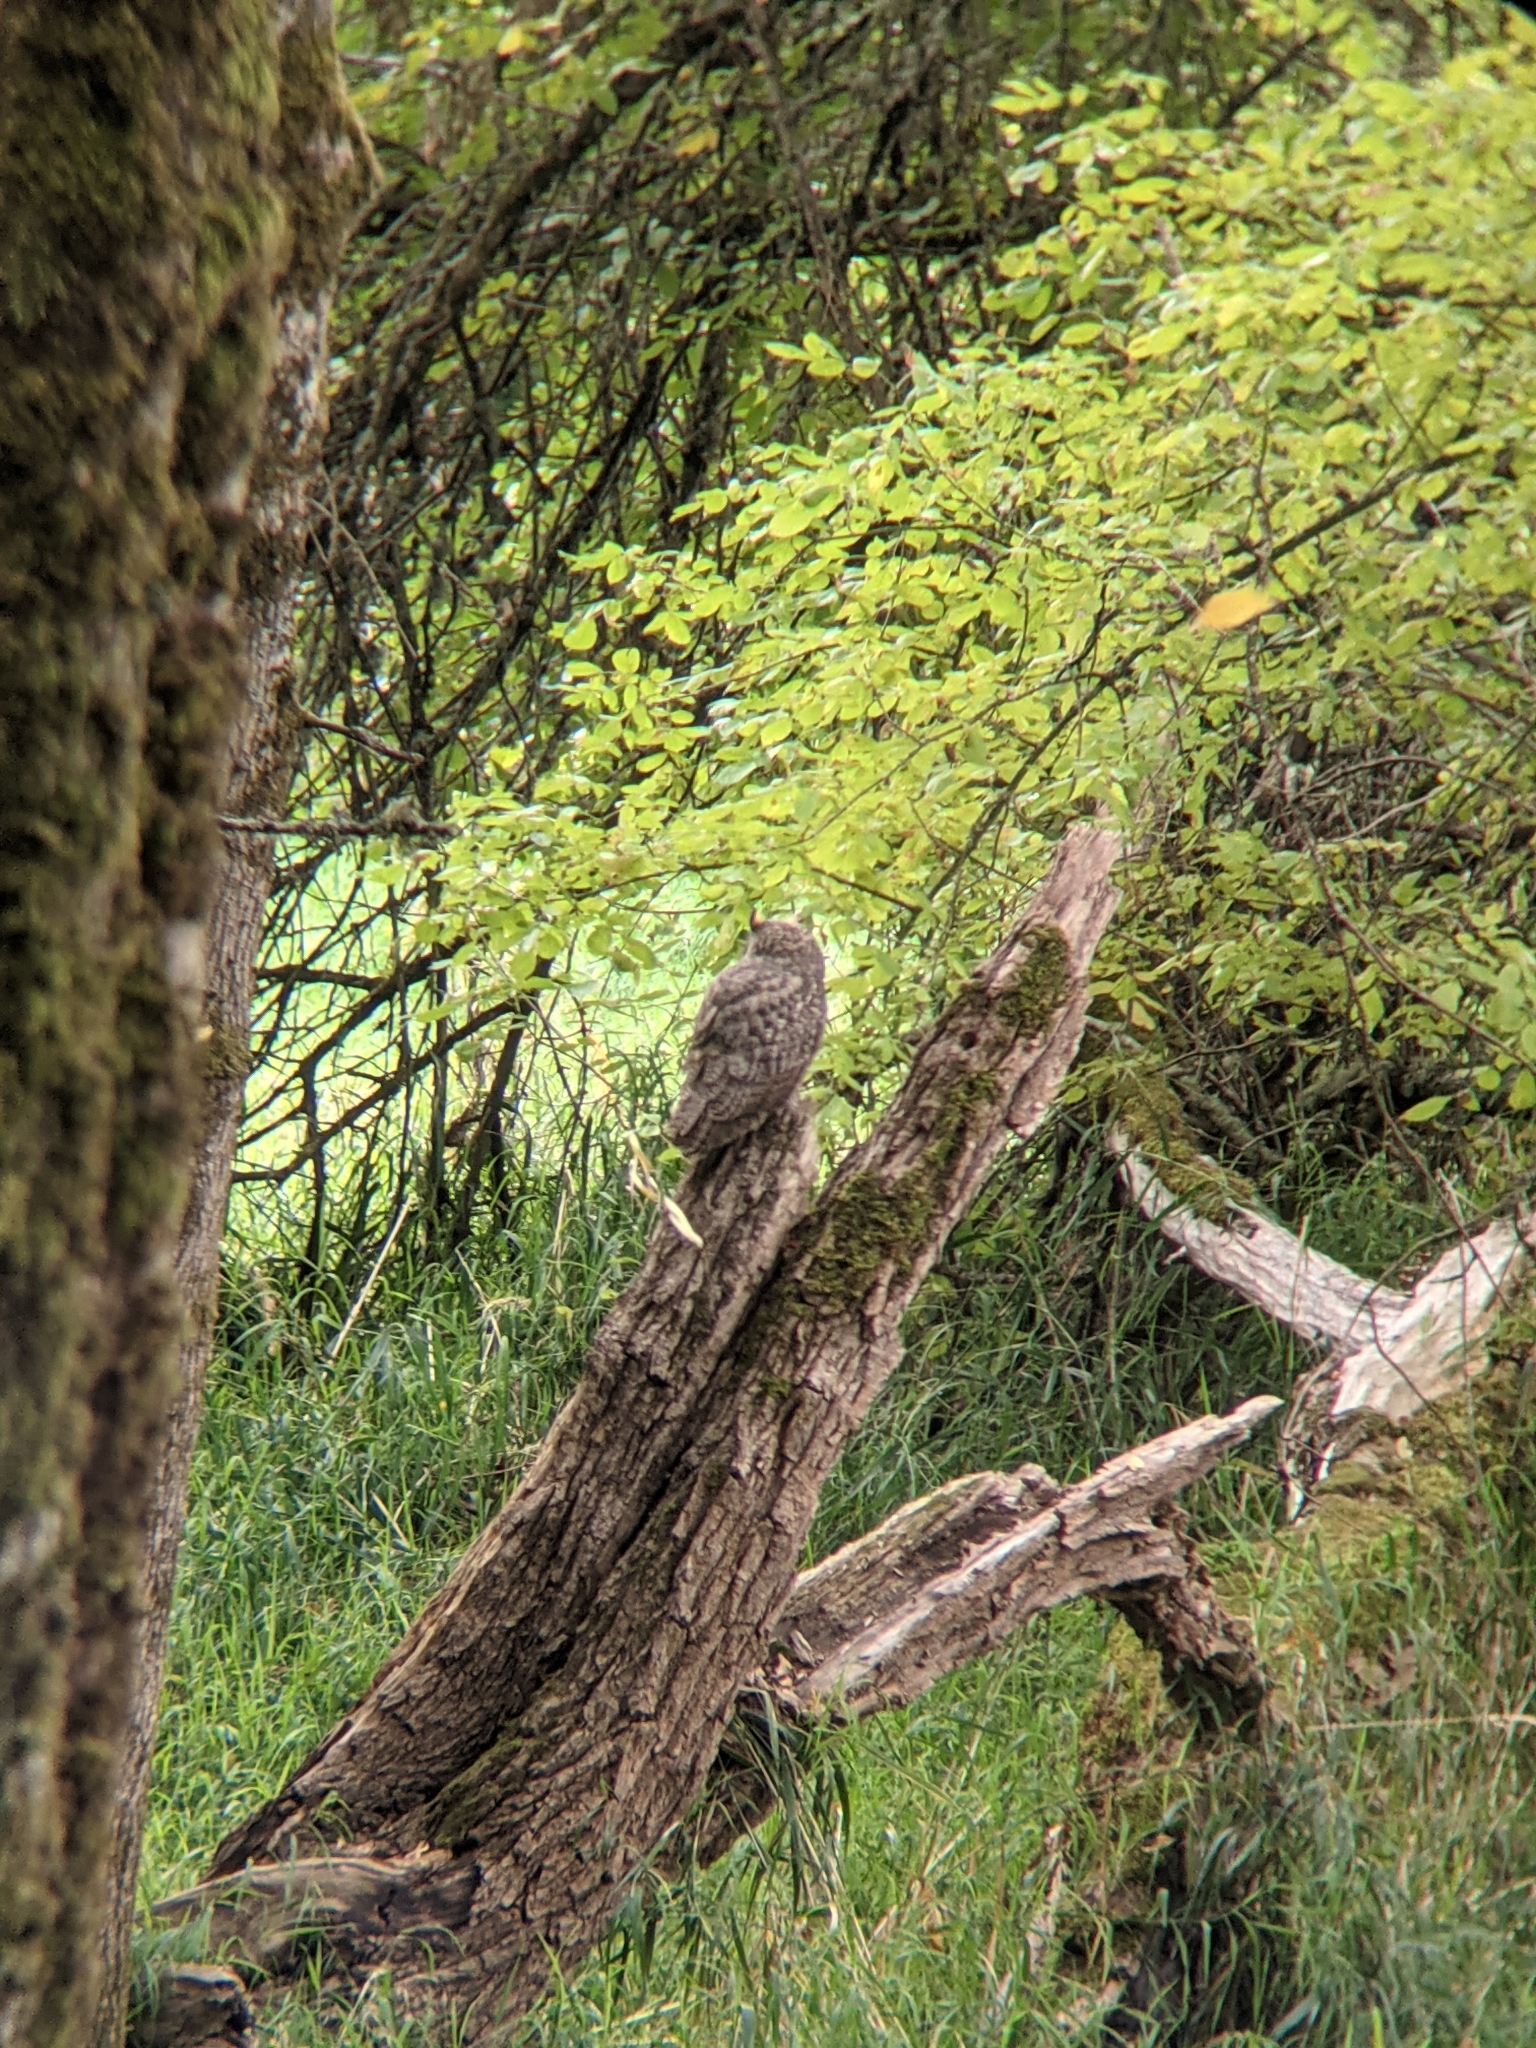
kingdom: Animalia
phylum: Chordata
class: Aves
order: Strigiformes
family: Strigidae
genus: Bubo
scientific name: Bubo virginianus
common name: Great horned owl
